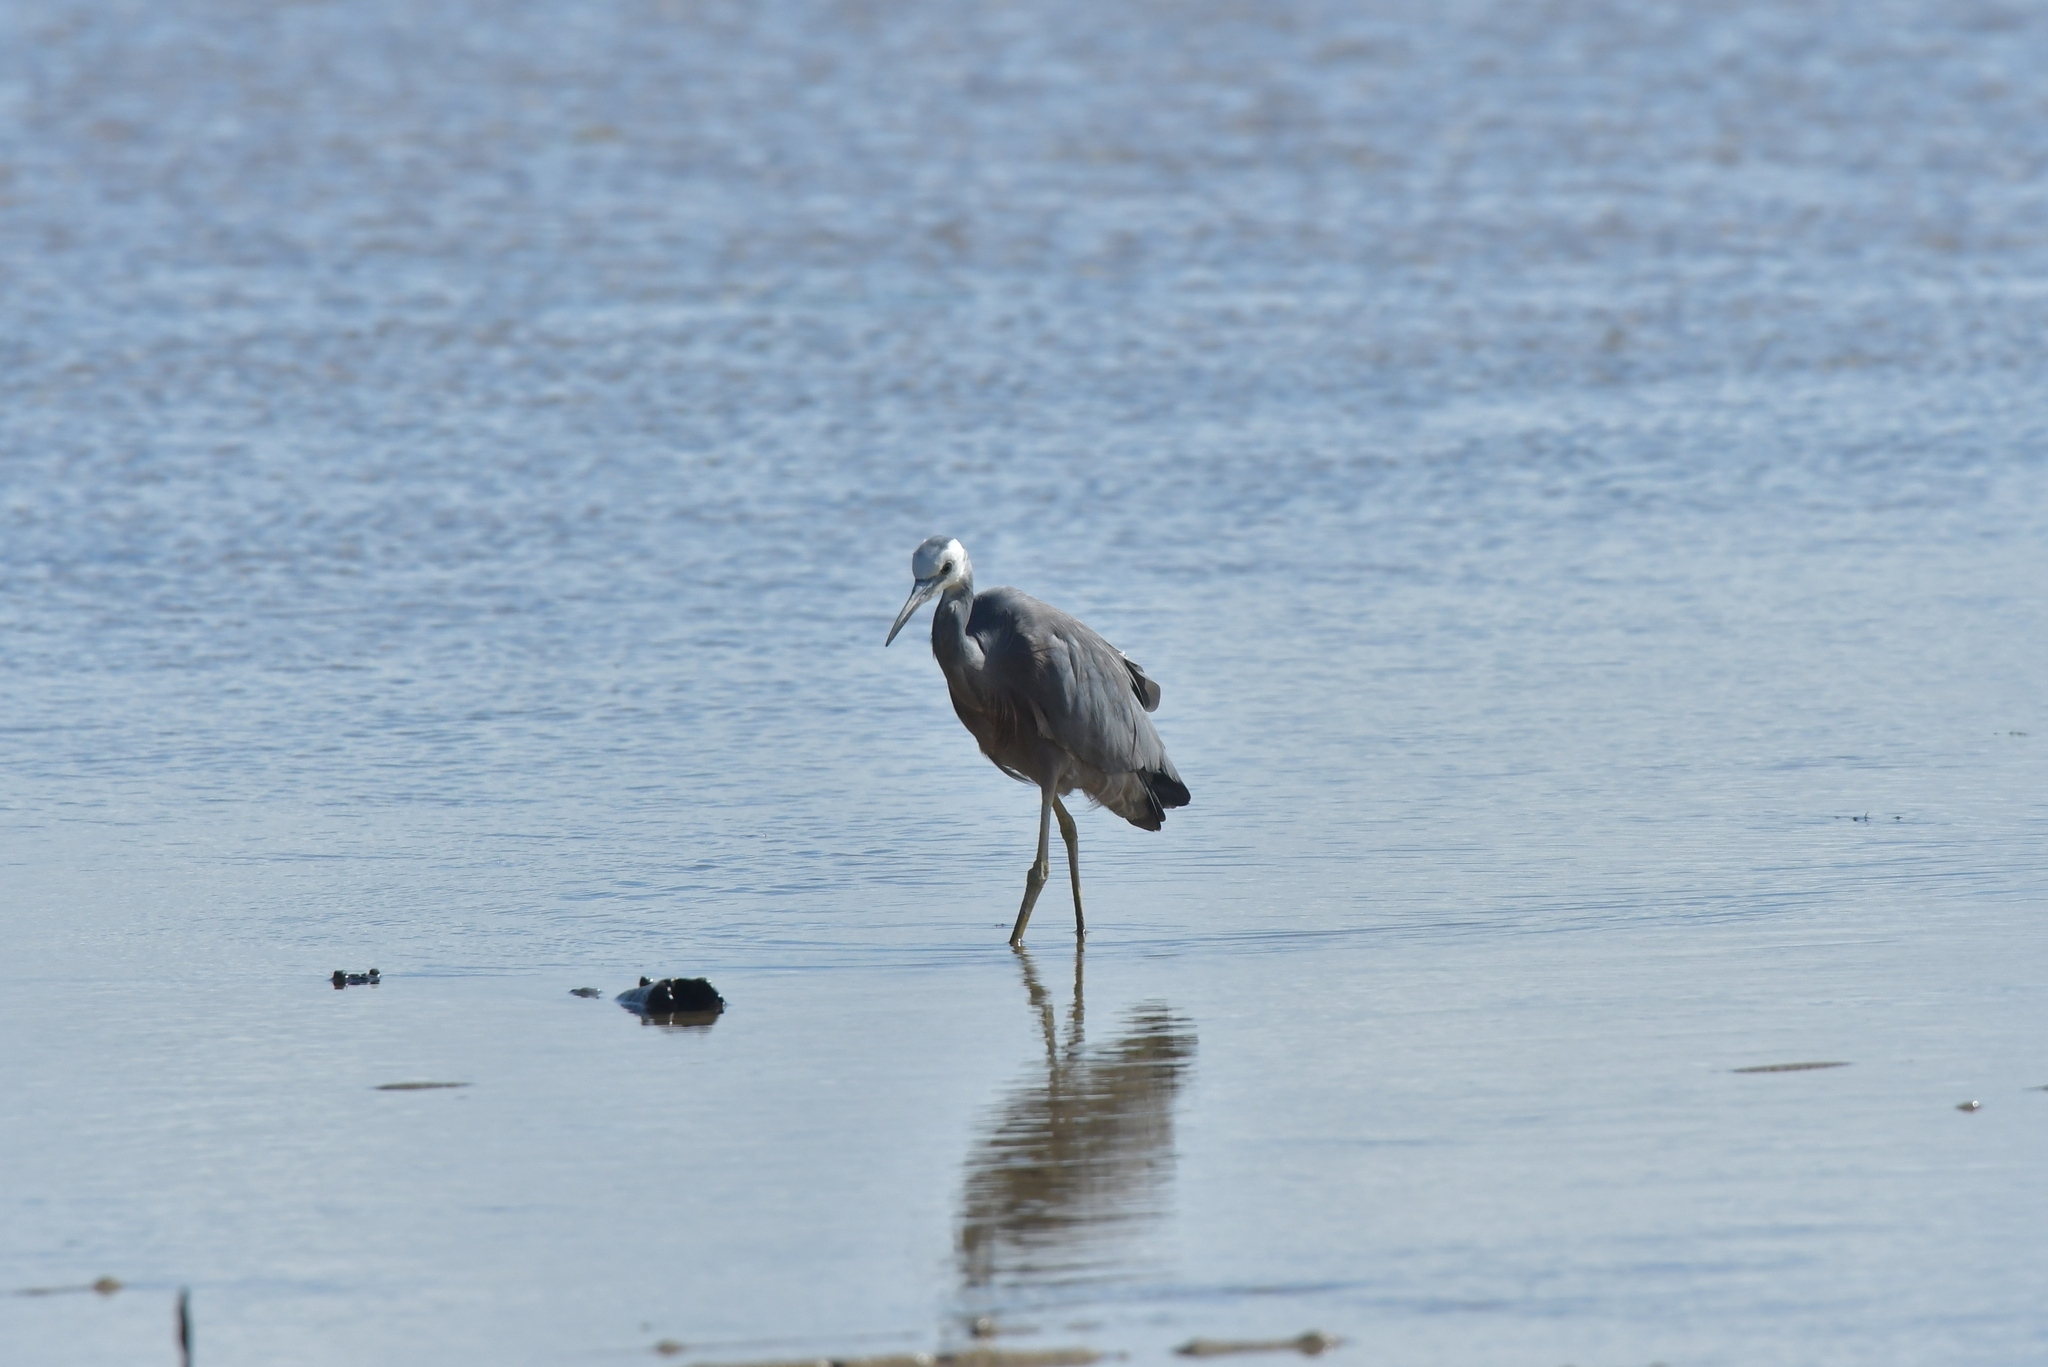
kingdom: Animalia
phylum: Chordata
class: Aves
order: Pelecaniformes
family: Ardeidae
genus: Egretta
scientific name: Egretta novaehollandiae
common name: White-faced heron
